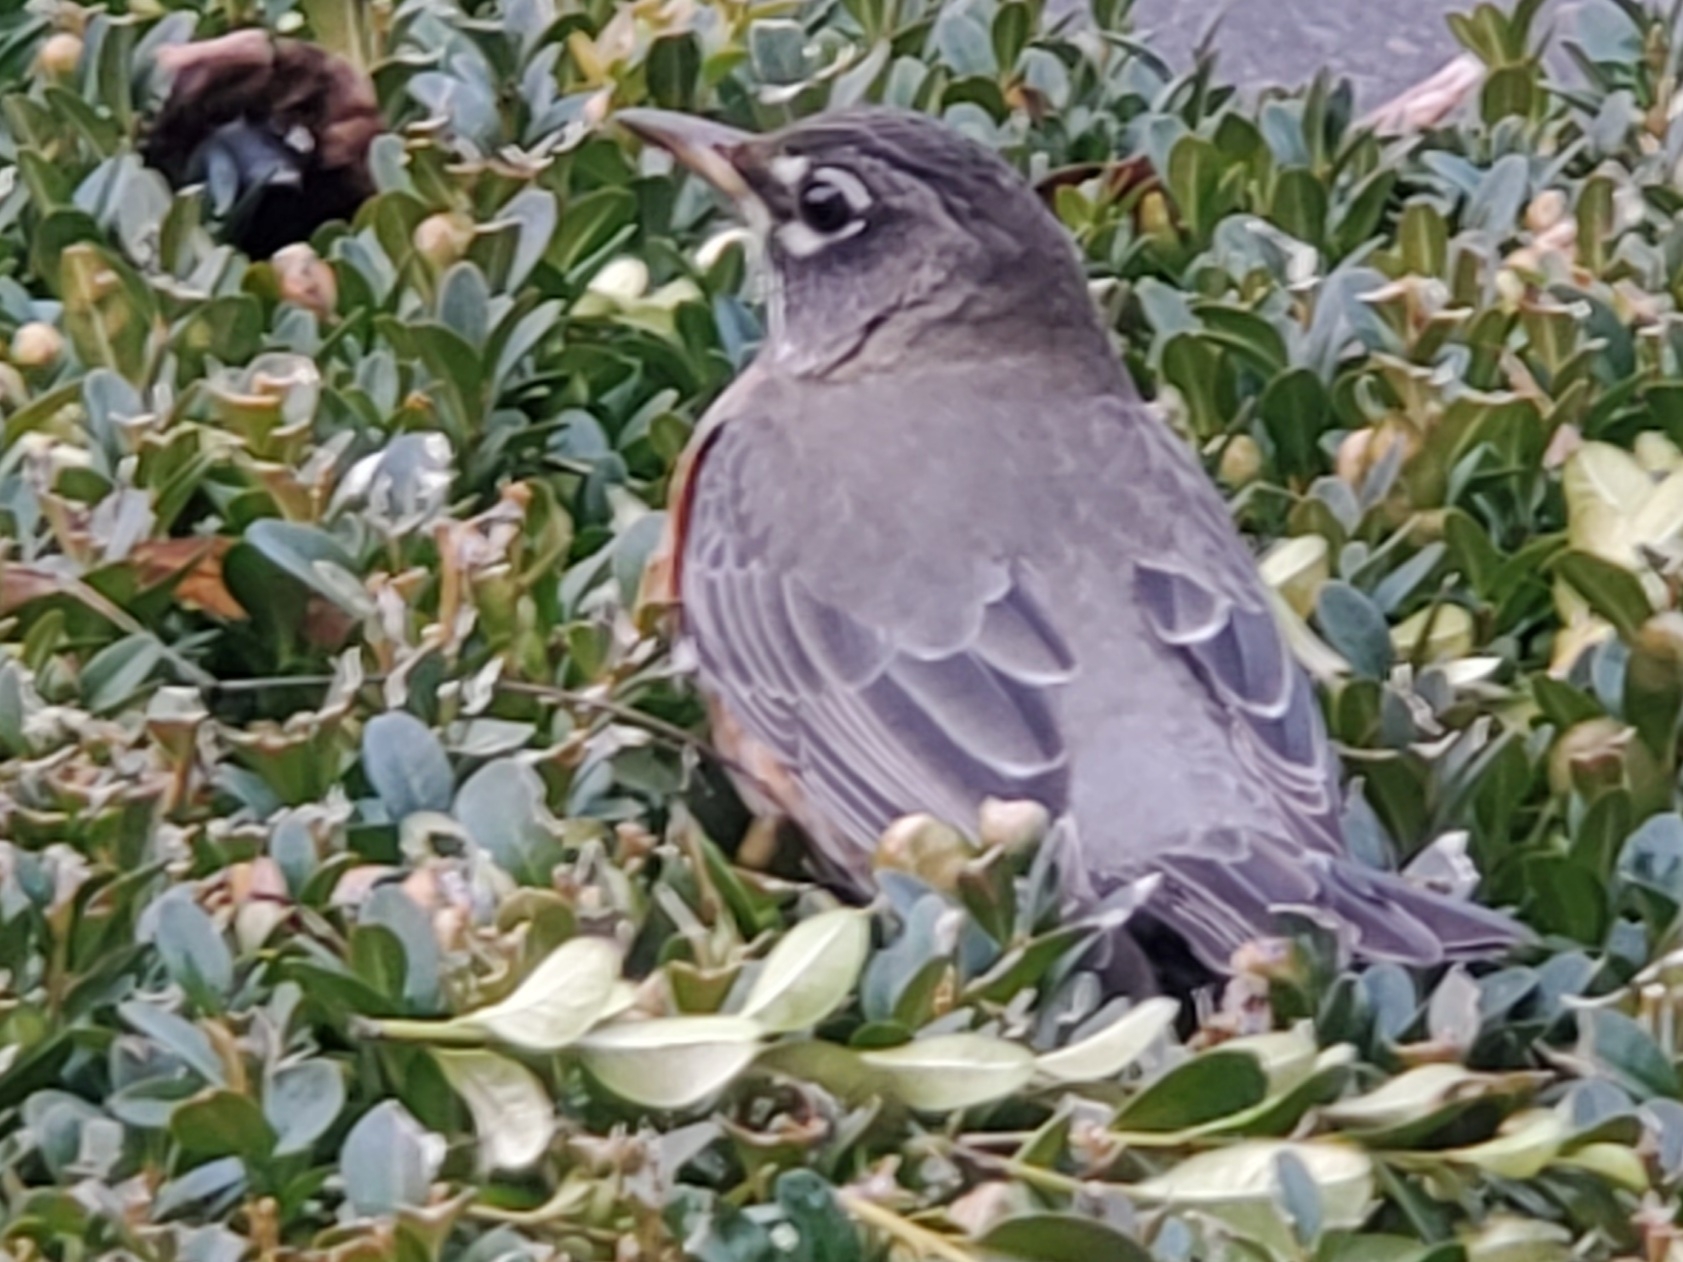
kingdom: Animalia
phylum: Chordata
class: Aves
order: Passeriformes
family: Turdidae
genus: Turdus
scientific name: Turdus migratorius
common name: American robin
